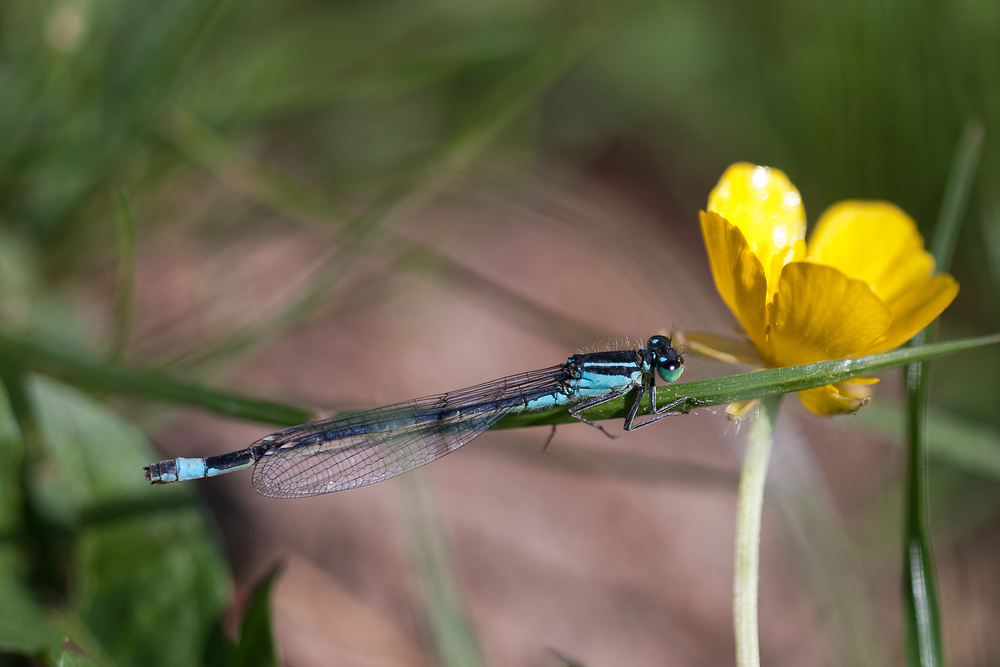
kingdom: Animalia
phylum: Arthropoda
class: Insecta
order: Odonata
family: Coenagrionidae
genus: Ischnura
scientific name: Ischnura elegans
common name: Blue-tailed damselfly
